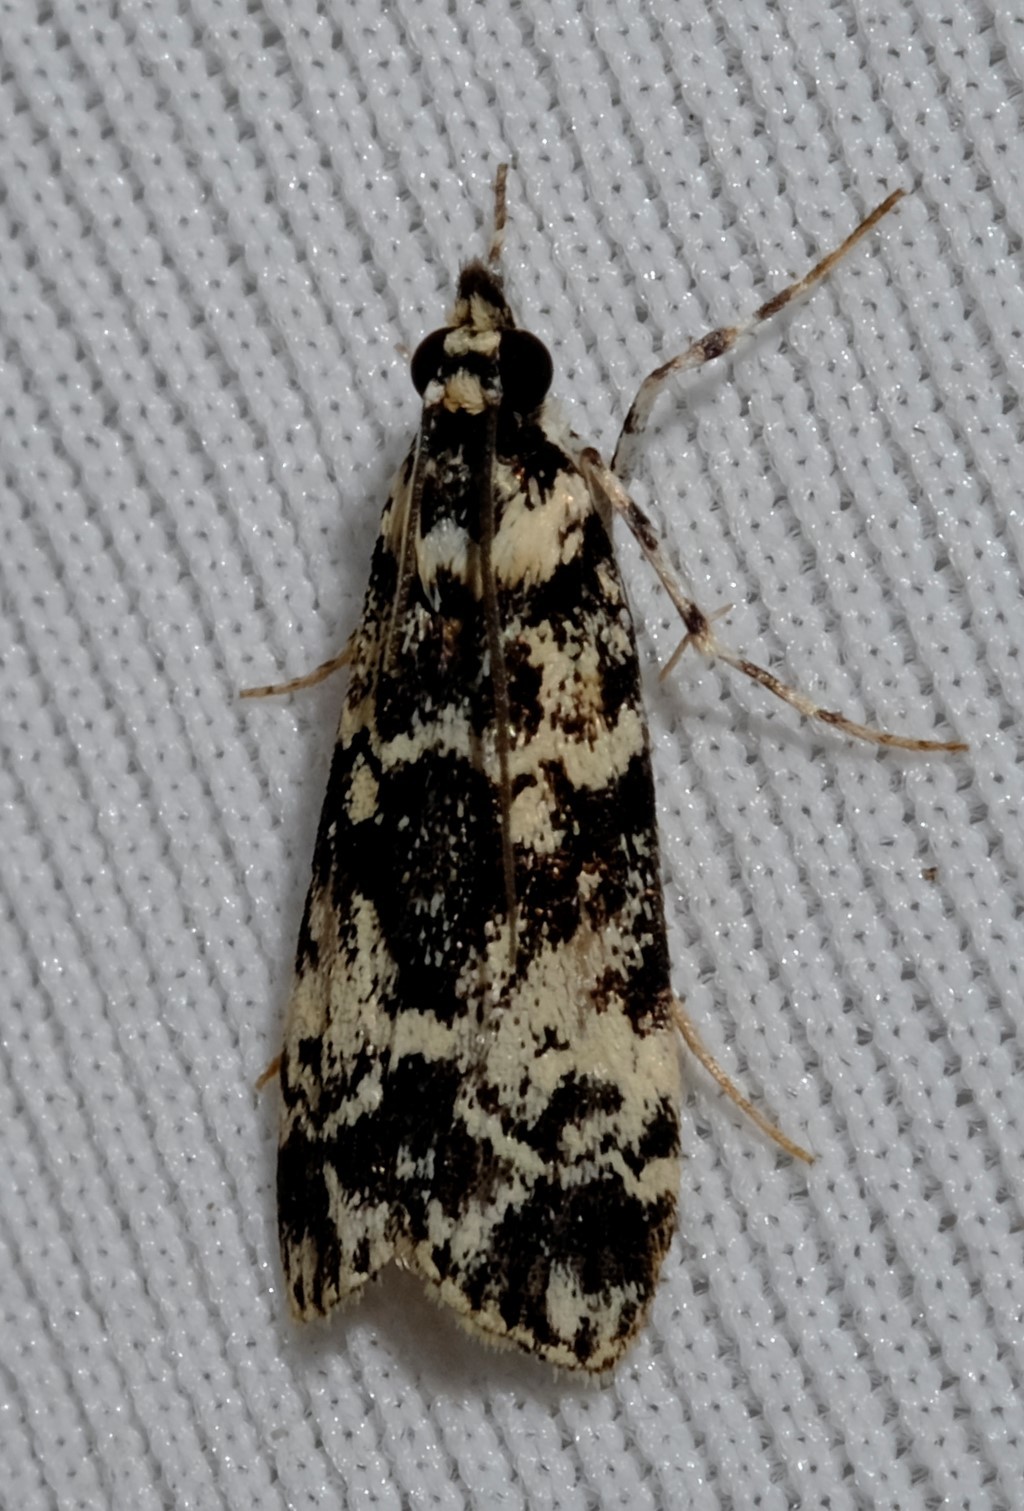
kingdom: Animalia
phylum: Arthropoda
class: Insecta
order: Lepidoptera
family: Crambidae
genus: Scoparia
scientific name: Scoparia exhibitalis
